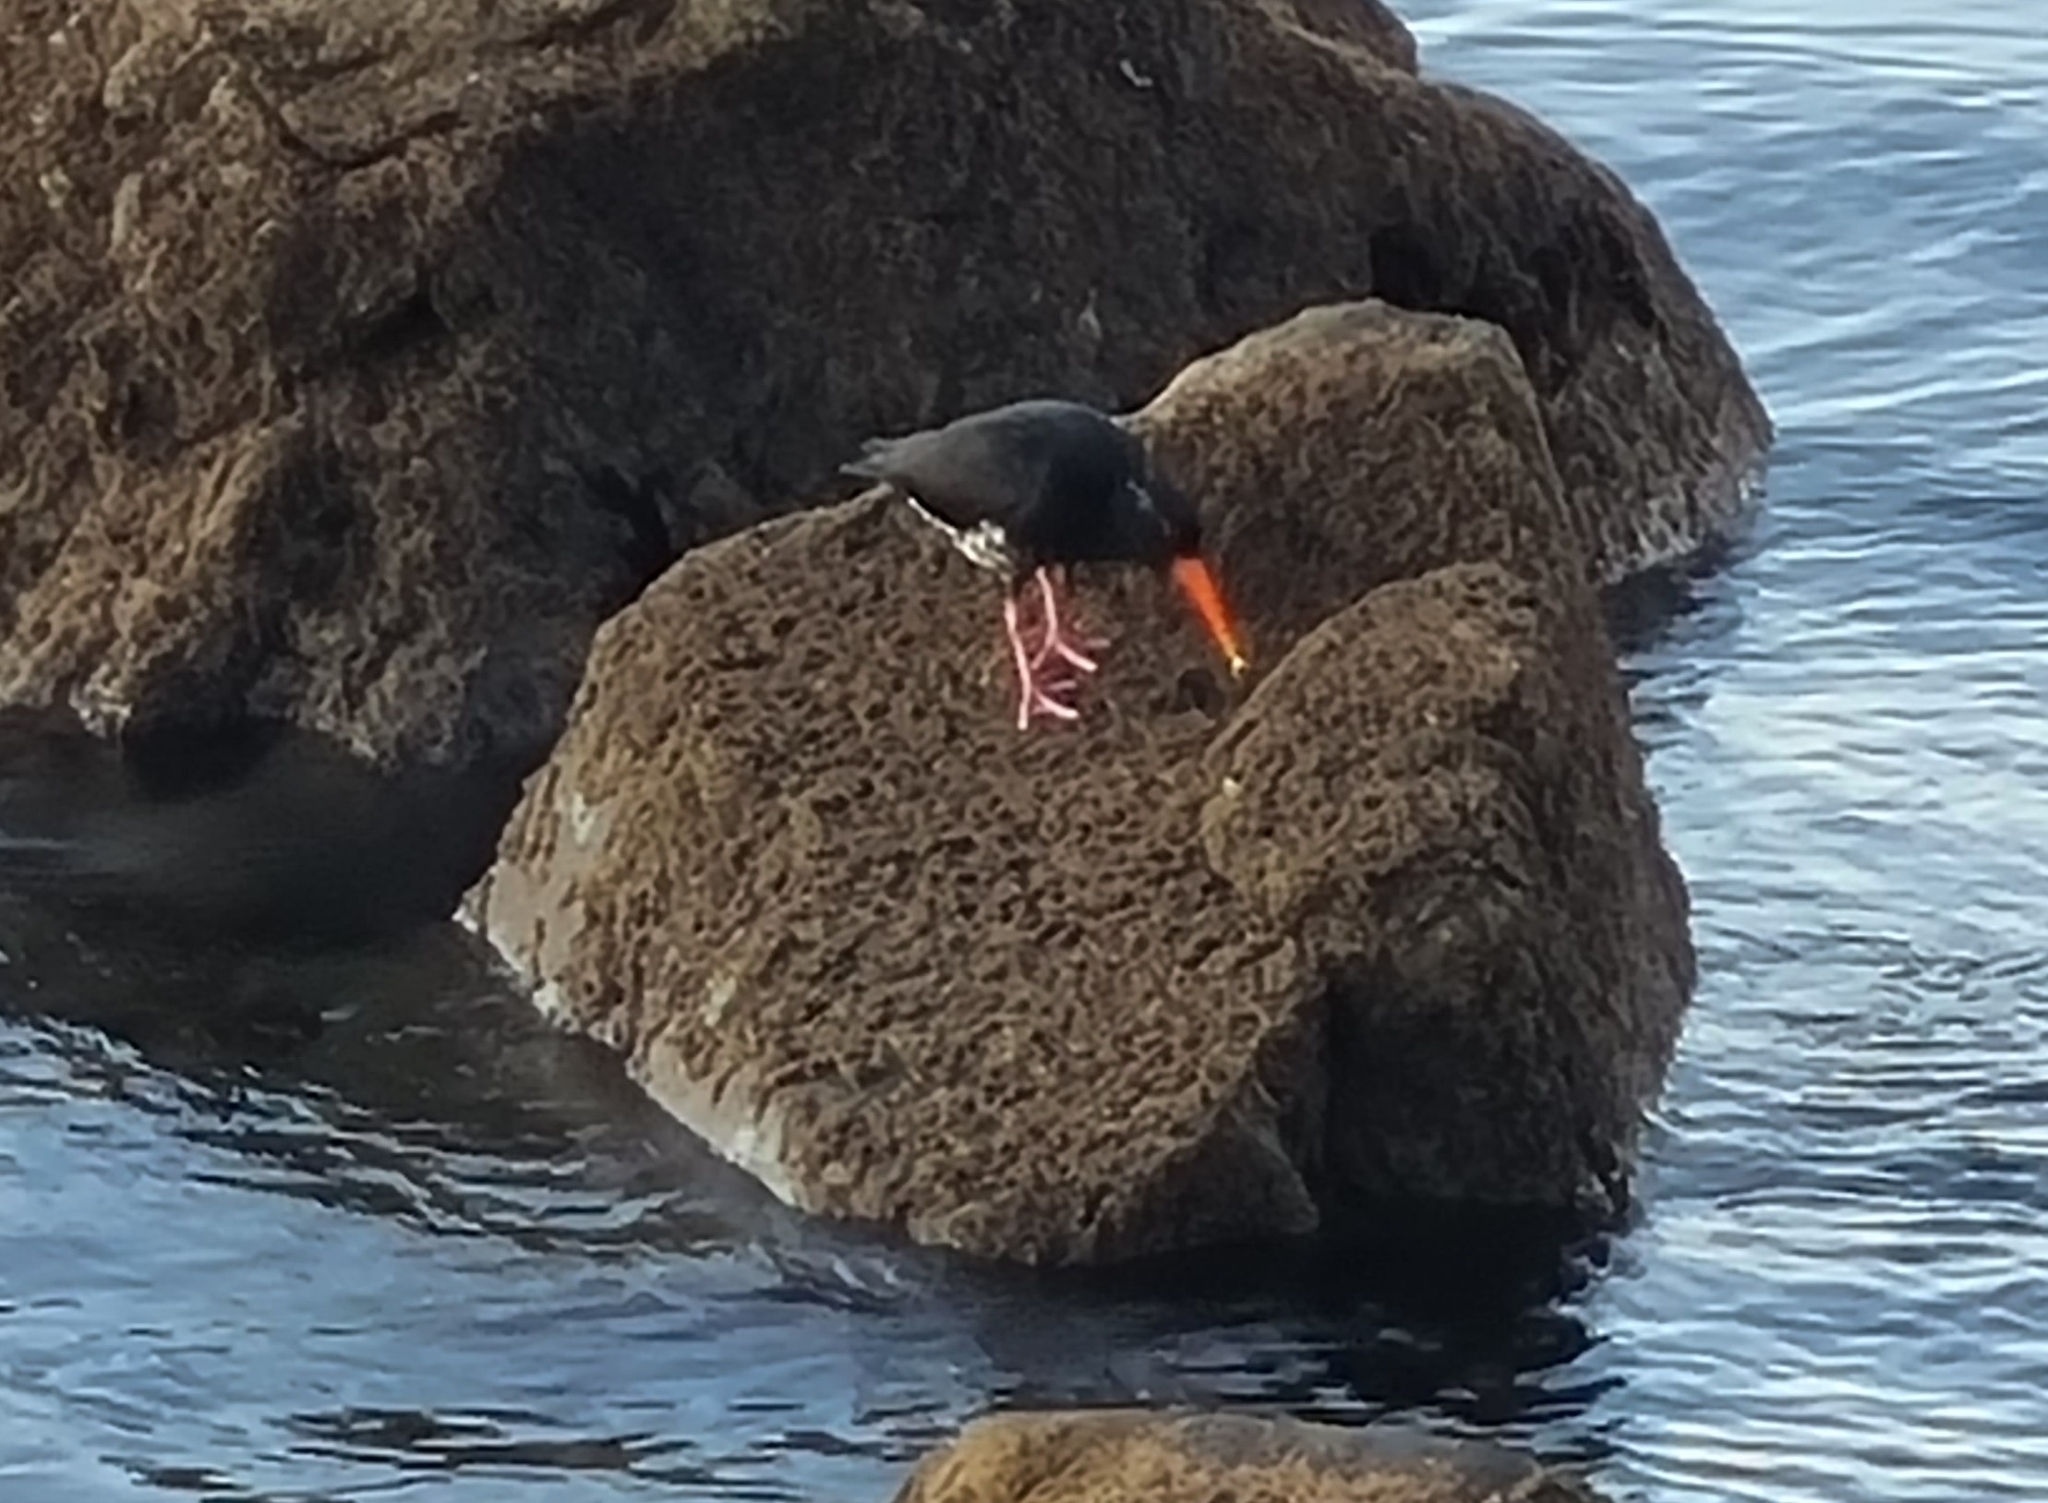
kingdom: Animalia
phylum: Chordata
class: Aves
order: Charadriiformes
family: Haematopodidae
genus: Haematopus
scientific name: Haematopus unicolor
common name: Variable oystercatcher
